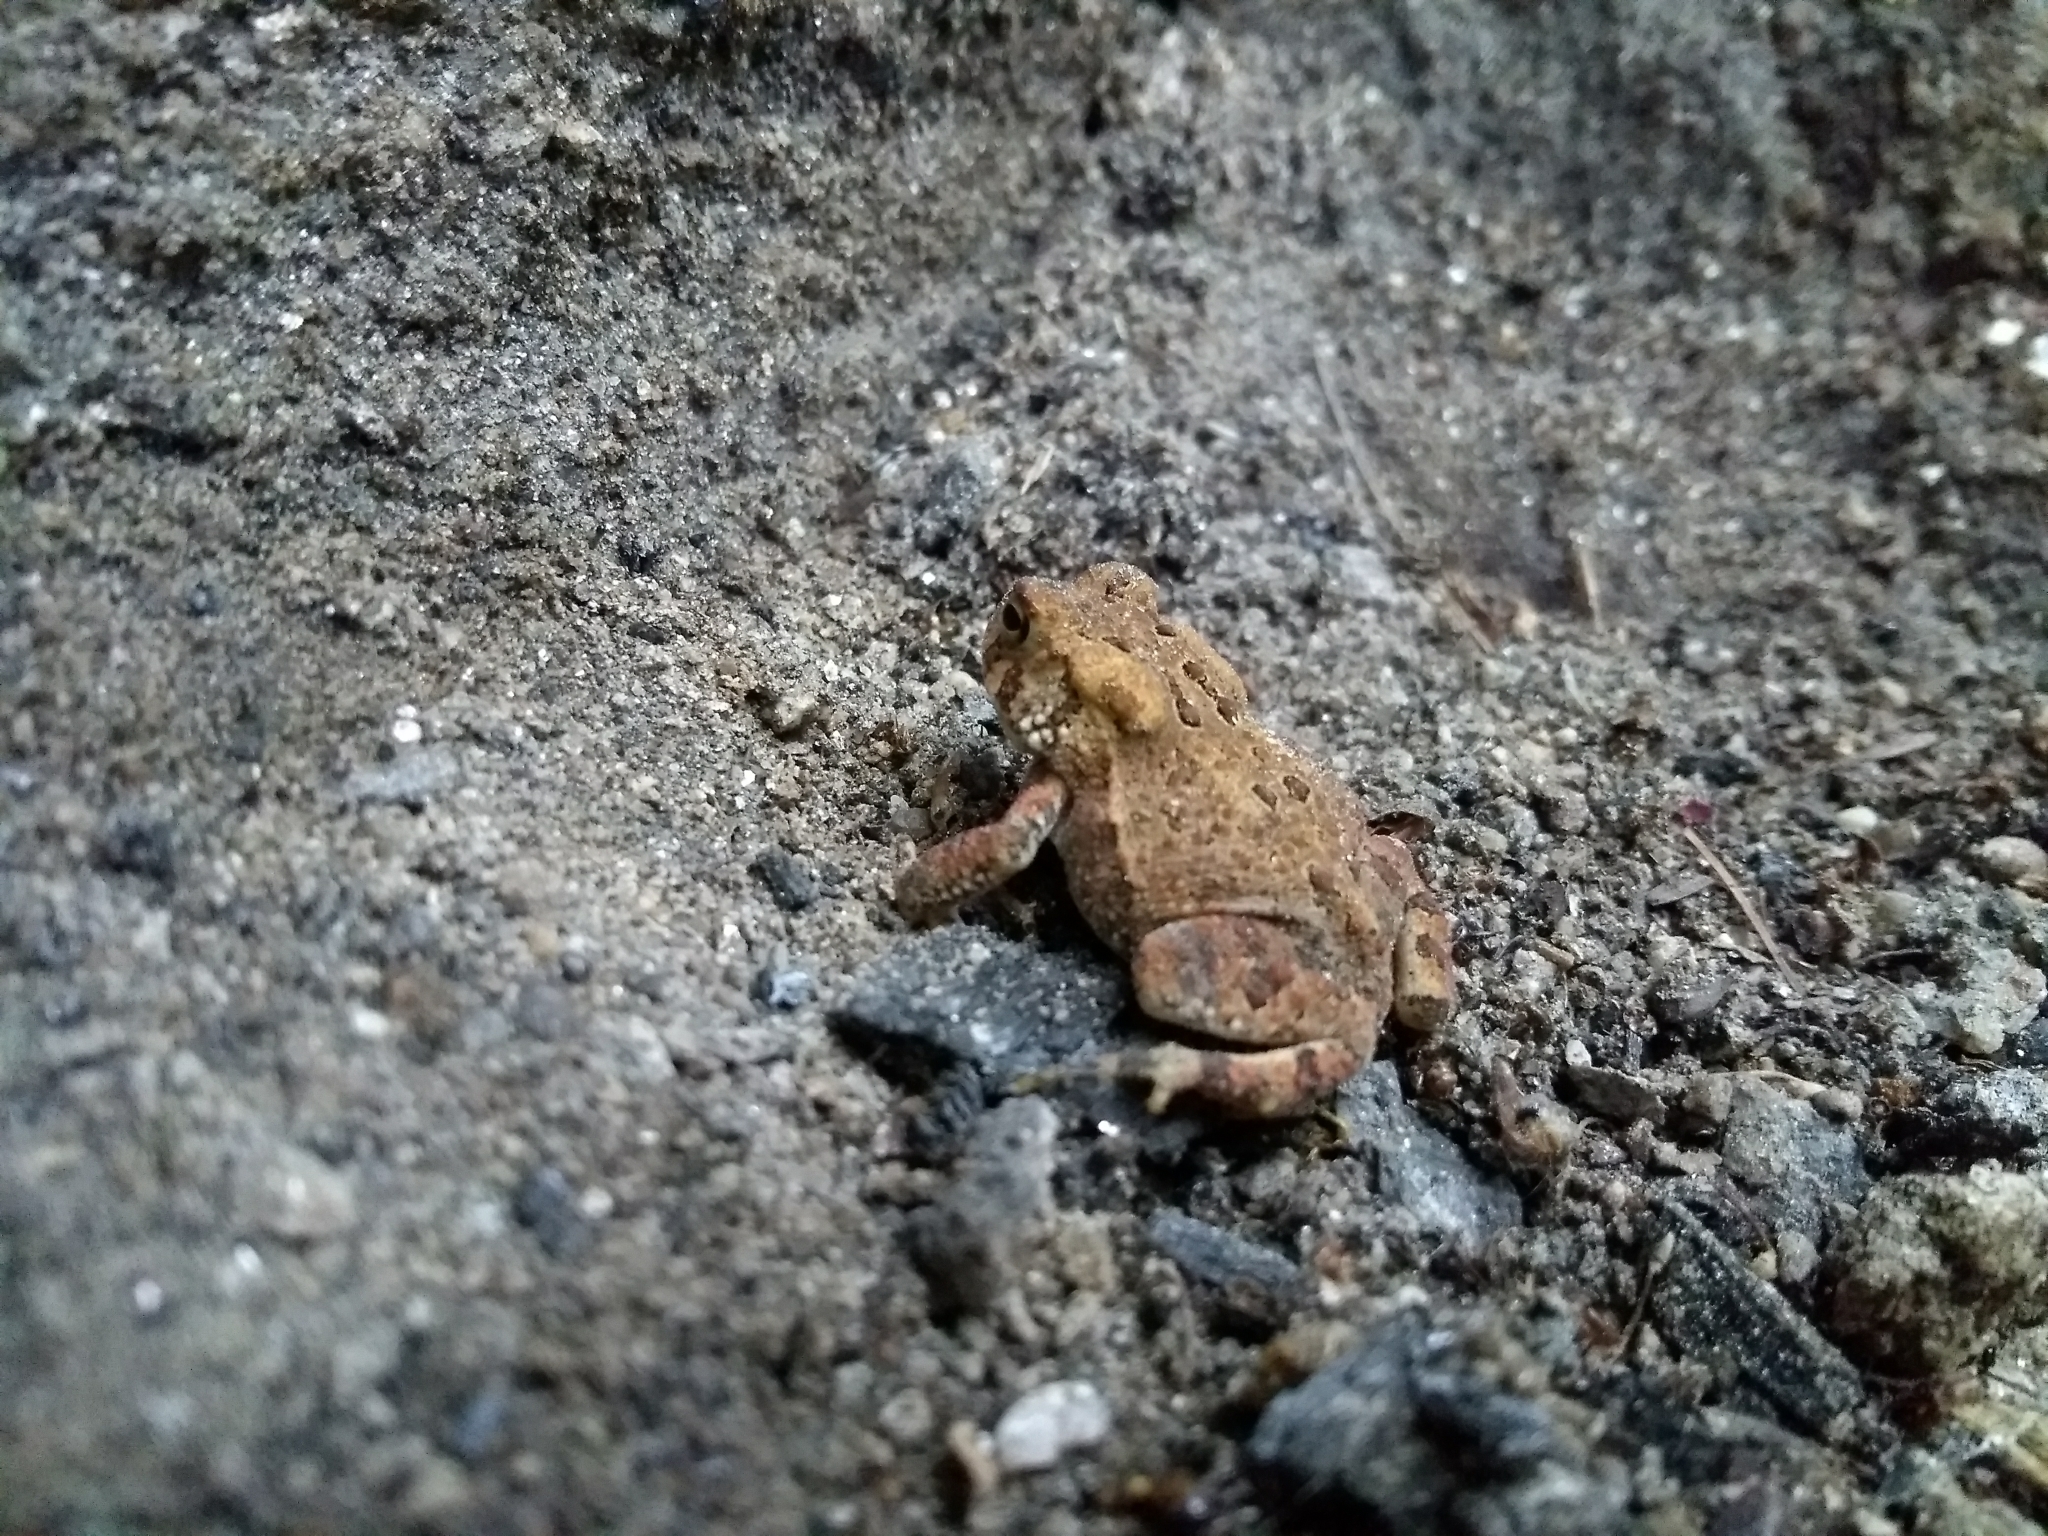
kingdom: Animalia
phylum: Chordata
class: Amphibia
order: Anura
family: Bufonidae
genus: Anaxyrus
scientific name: Anaxyrus americanus
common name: American toad
